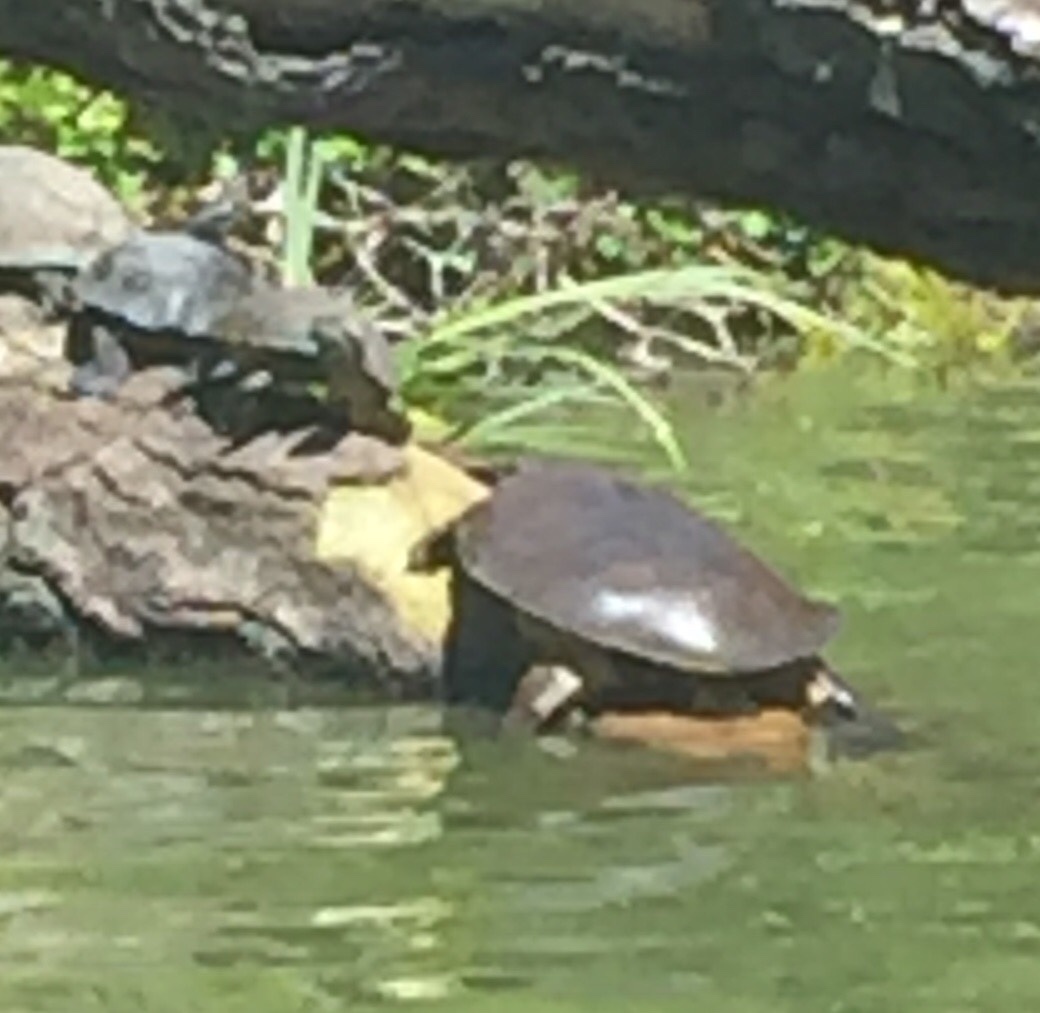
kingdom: Animalia
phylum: Chordata
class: Testudines
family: Trionychidae
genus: Apalone
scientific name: Apalone spinifera
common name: Spiny softshell turtle
